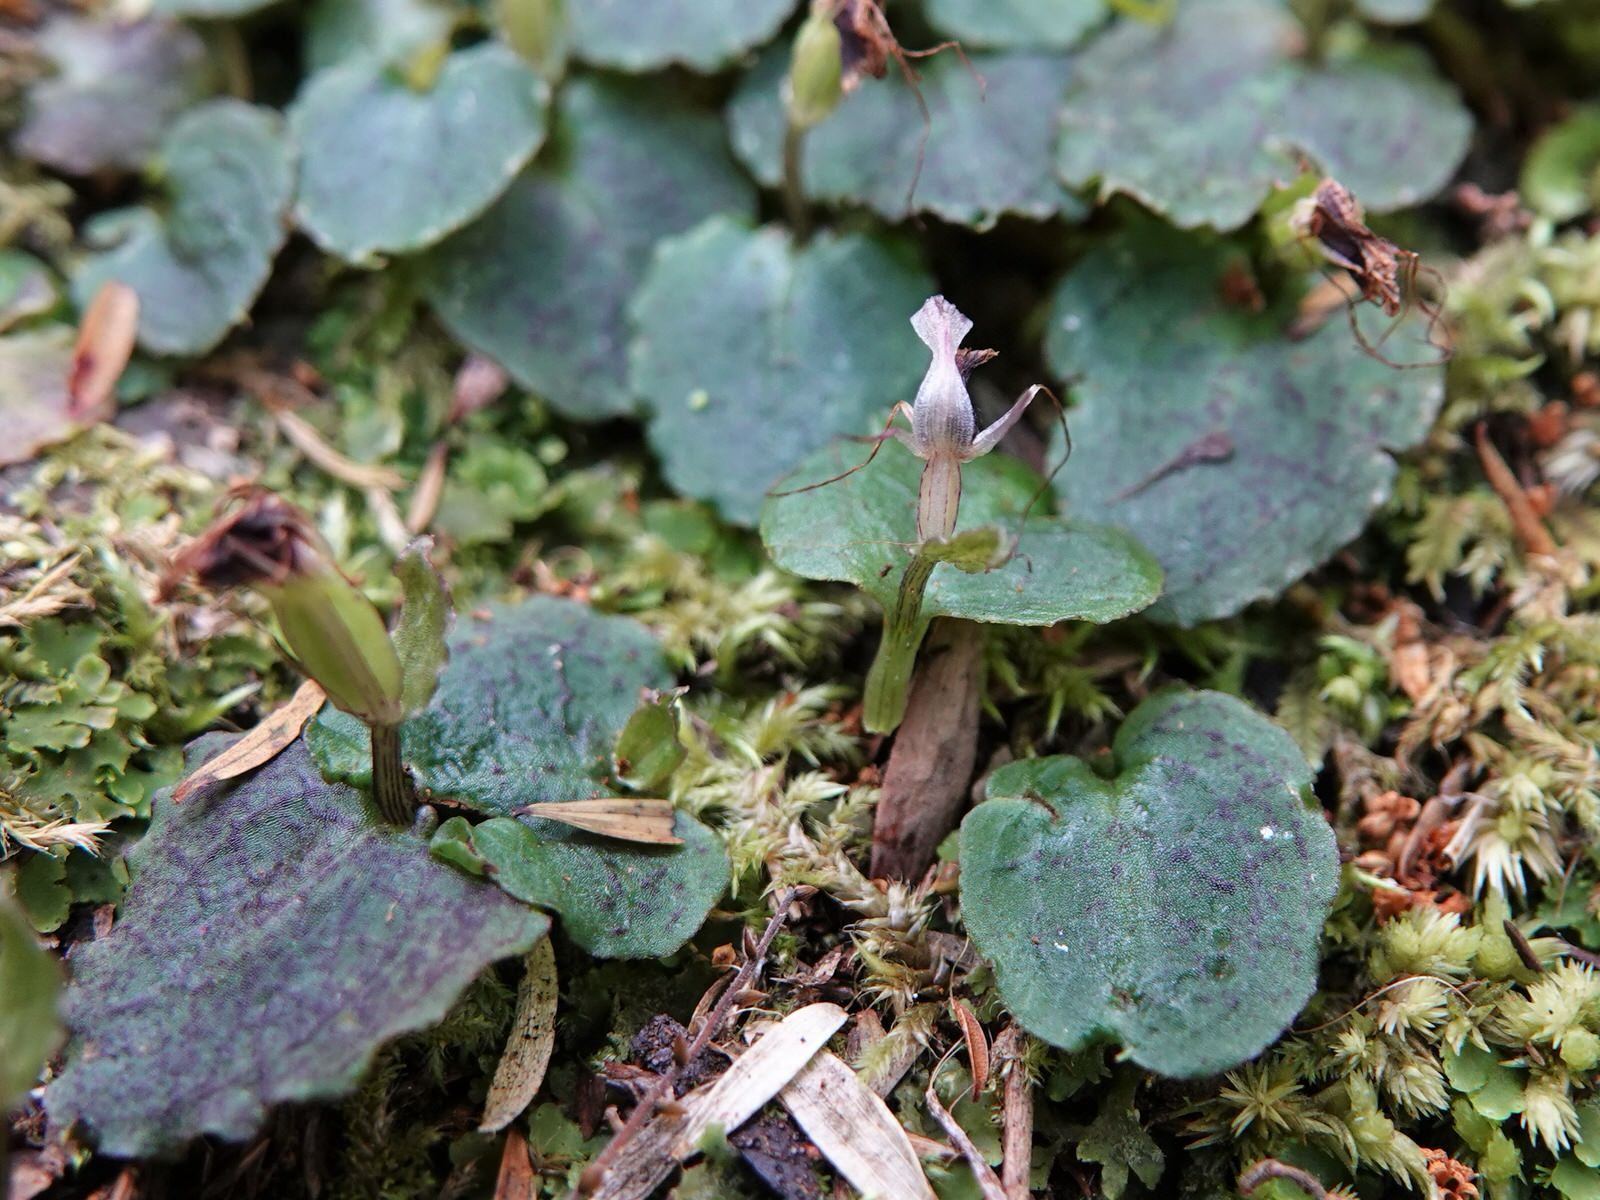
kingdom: Plantae
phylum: Tracheophyta
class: Liliopsida
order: Asparagales
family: Orchidaceae
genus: Corybas
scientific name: Corybas oblongus
